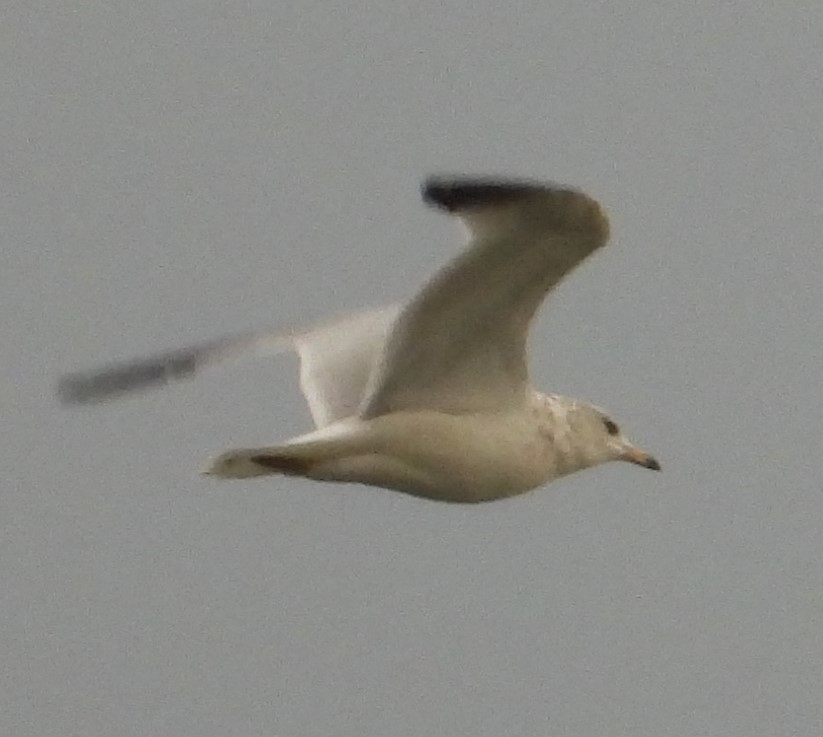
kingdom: Animalia
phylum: Chordata
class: Aves
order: Charadriiformes
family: Laridae
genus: Larus
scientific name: Larus delawarensis
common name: Ring-billed gull
